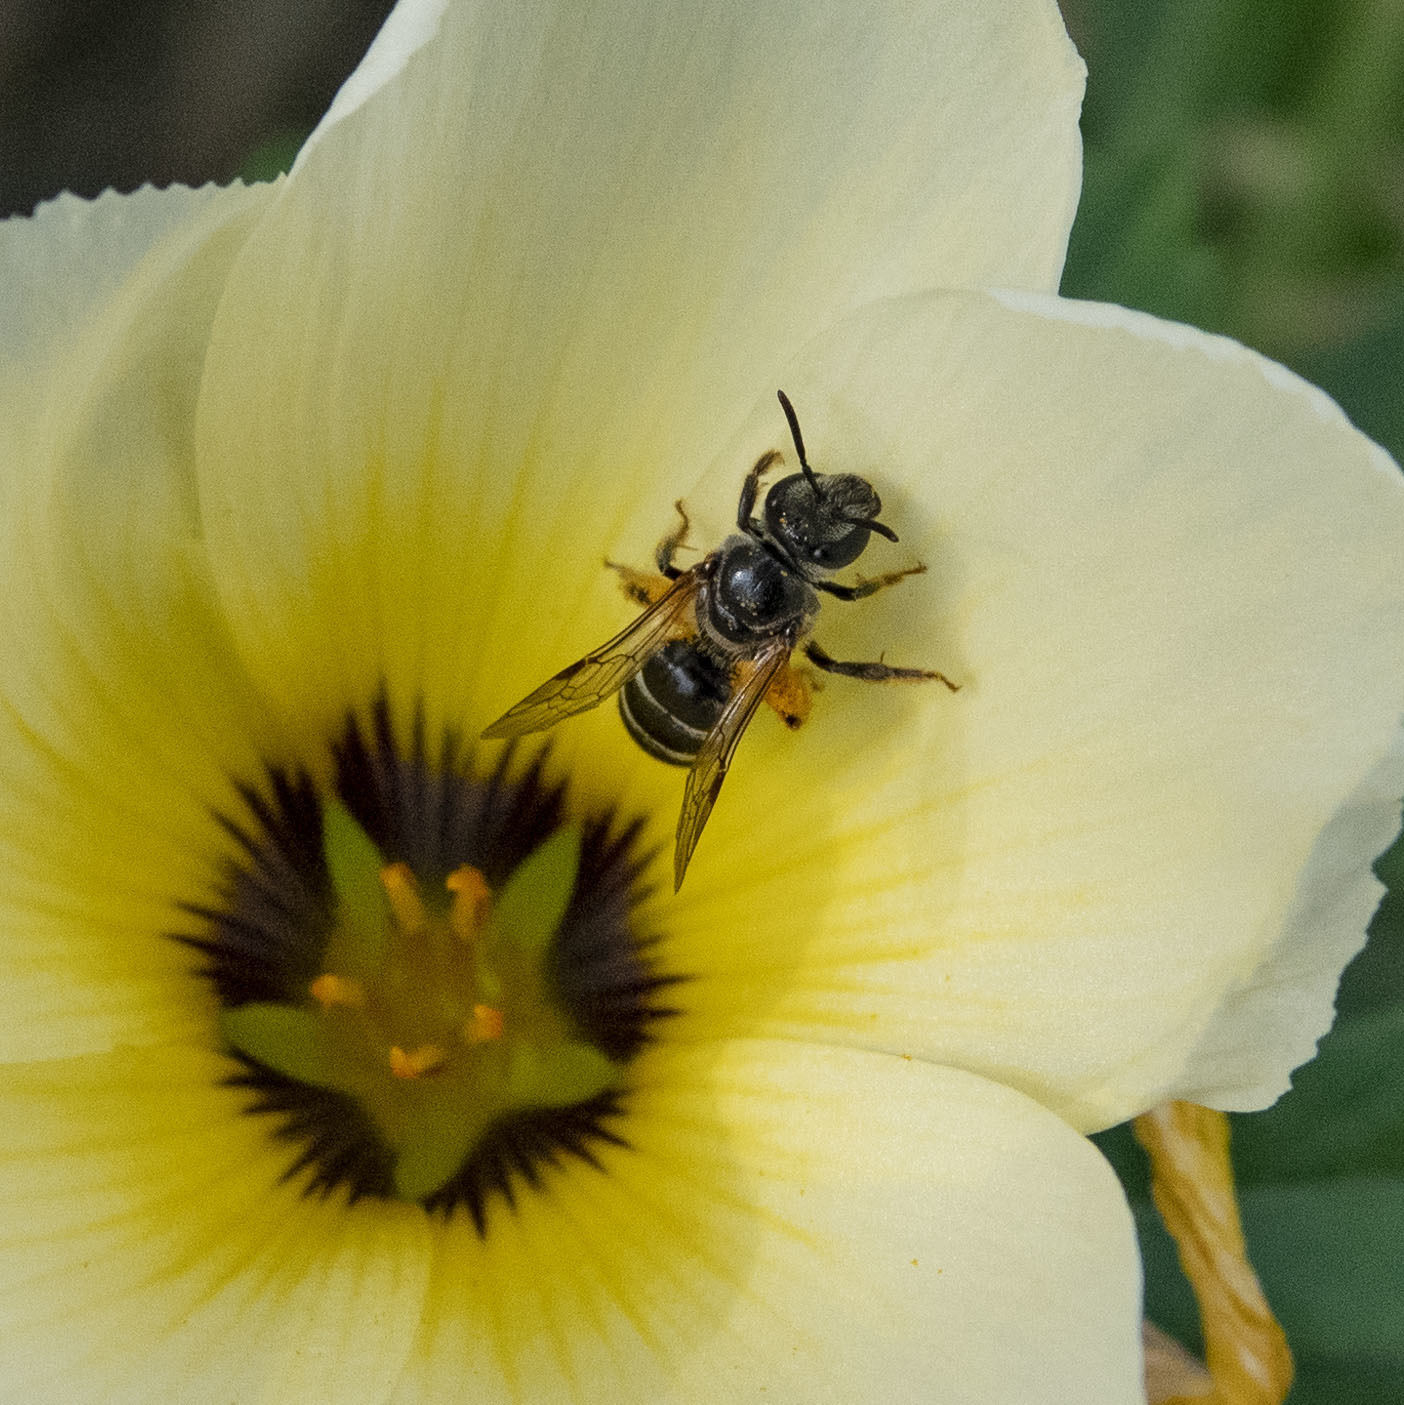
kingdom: Animalia
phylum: Arthropoda
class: Insecta
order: Hymenoptera
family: Halictidae
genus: Lasioglossum
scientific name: Lasioglossum albescens
